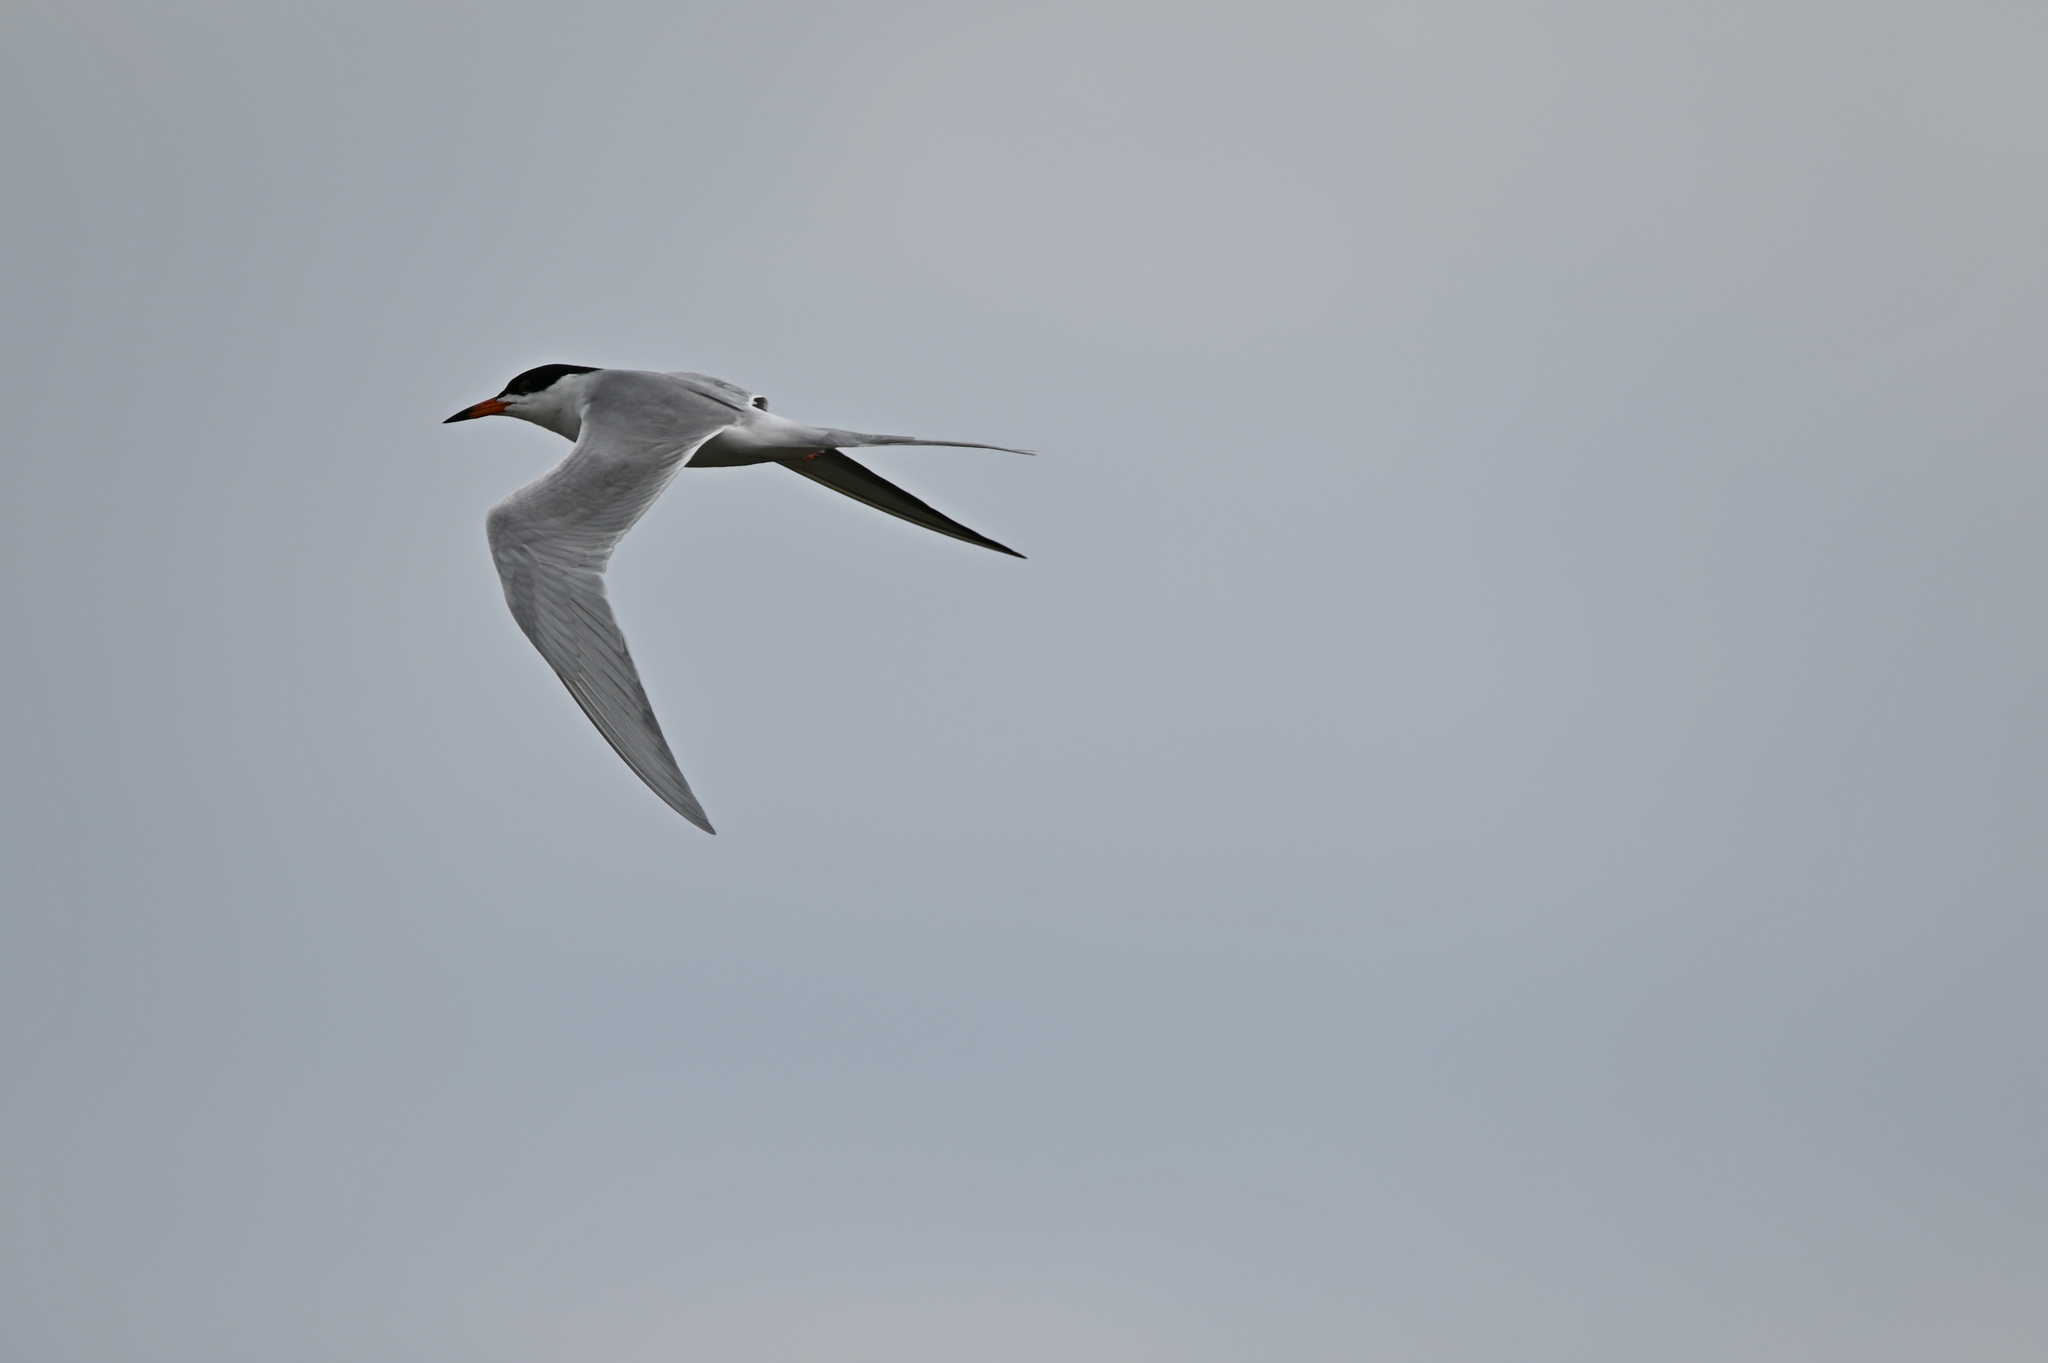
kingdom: Animalia
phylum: Chordata
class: Aves
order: Charadriiformes
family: Laridae
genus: Sterna
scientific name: Sterna forsteri
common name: Forster's tern
